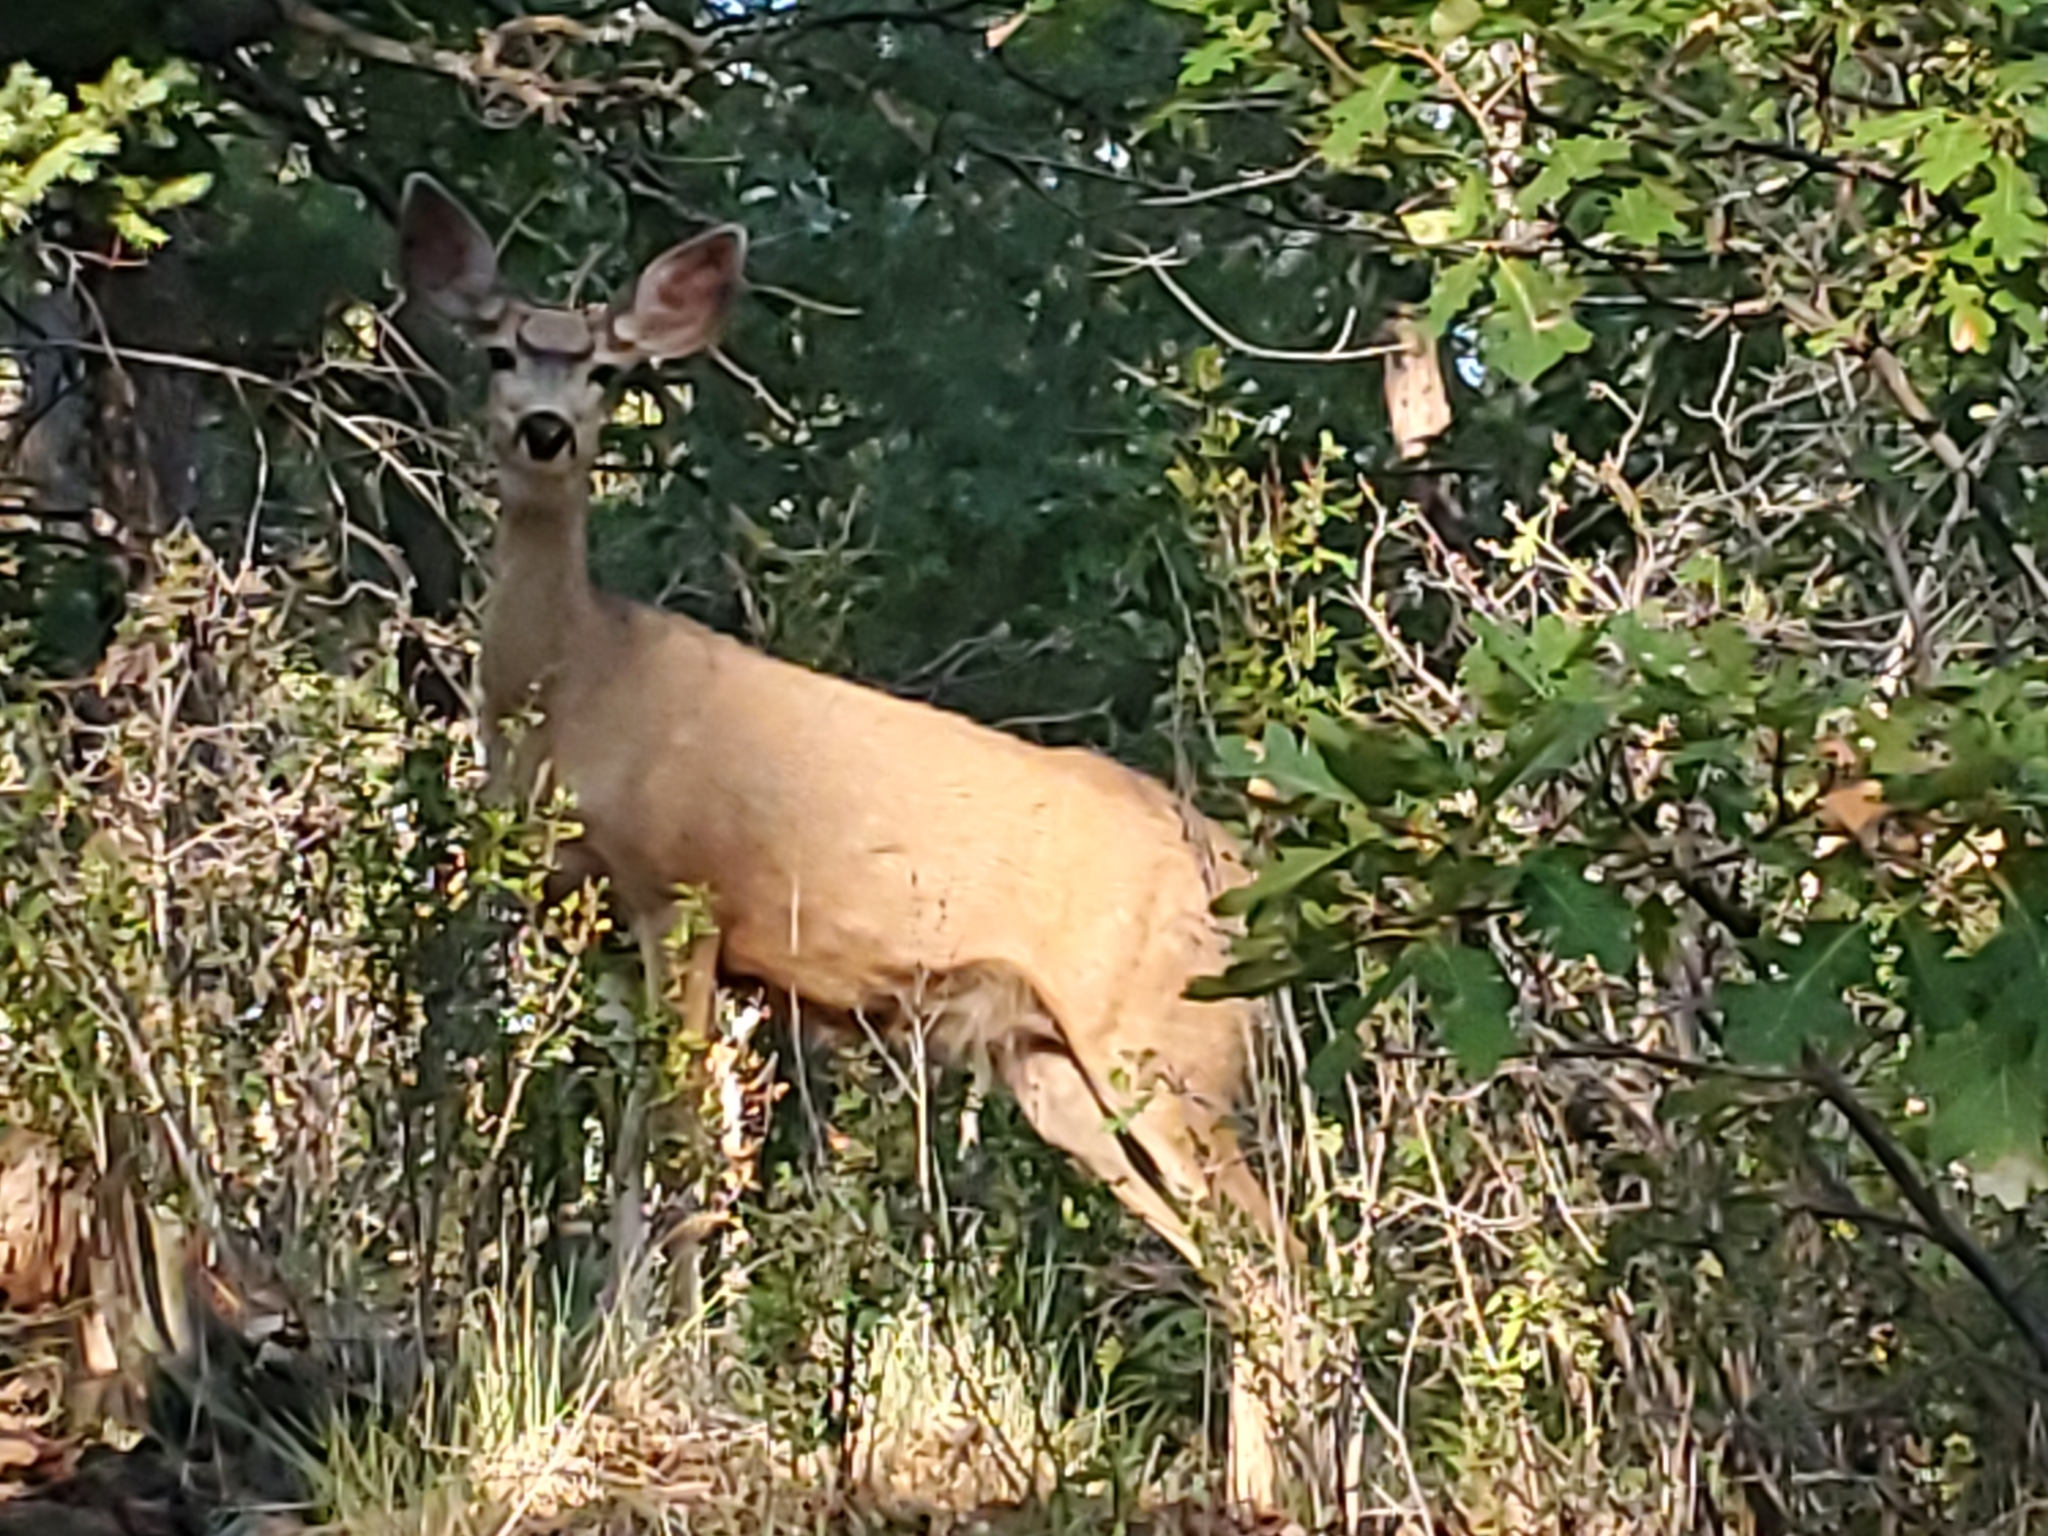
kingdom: Animalia
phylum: Chordata
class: Mammalia
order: Artiodactyla
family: Cervidae
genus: Odocoileus
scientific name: Odocoileus hemionus
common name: Mule deer
